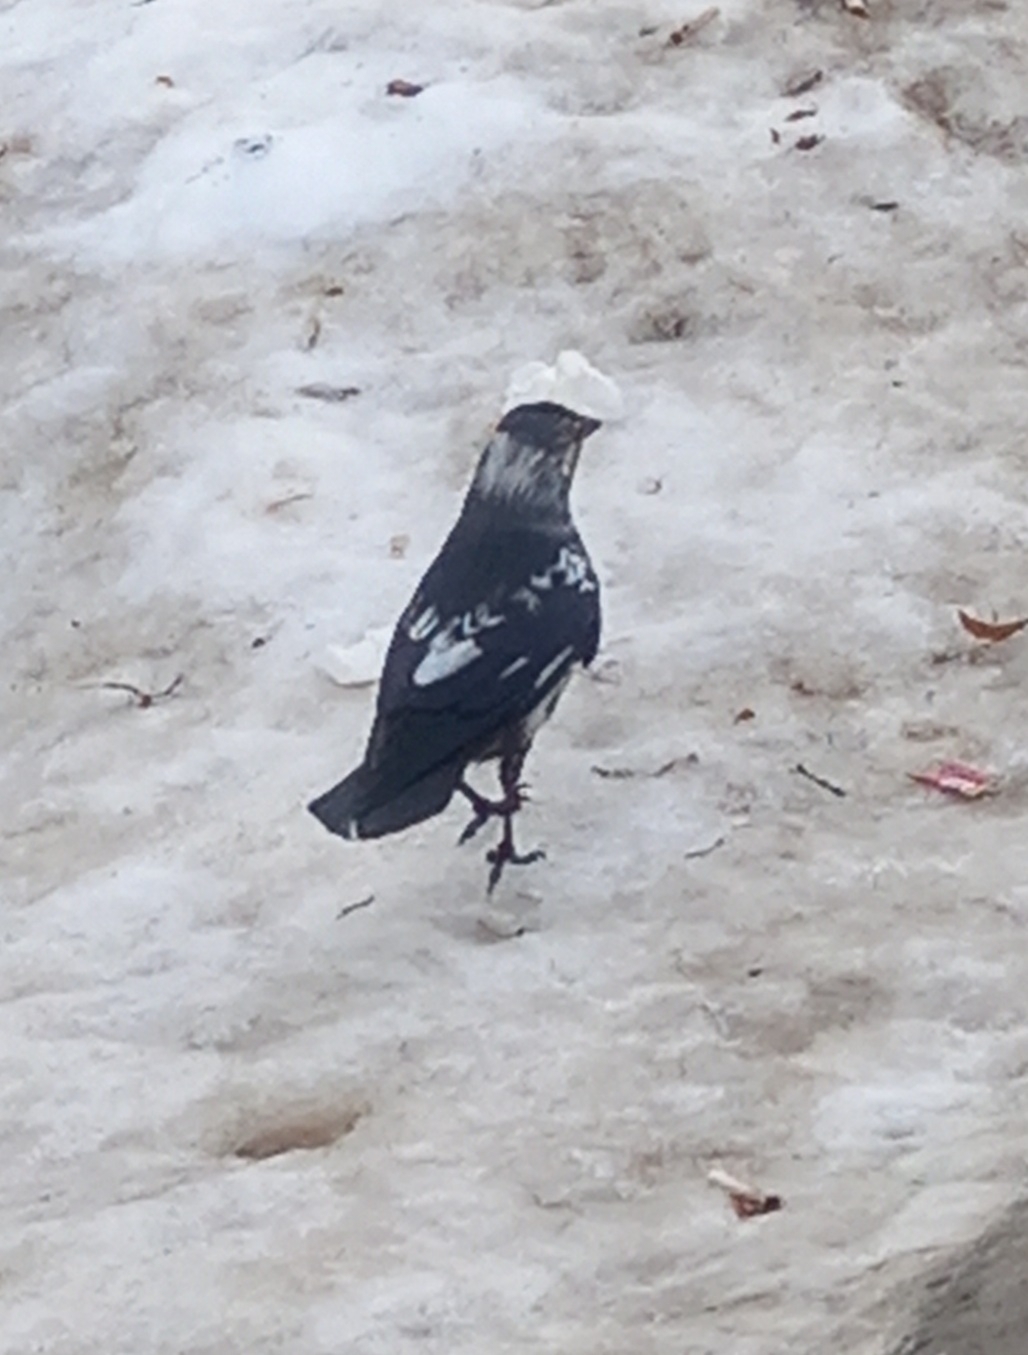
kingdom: Animalia
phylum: Chordata
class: Aves
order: Passeriformes
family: Corvidae
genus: Coloeus
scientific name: Coloeus monedula
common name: Western jackdaw
